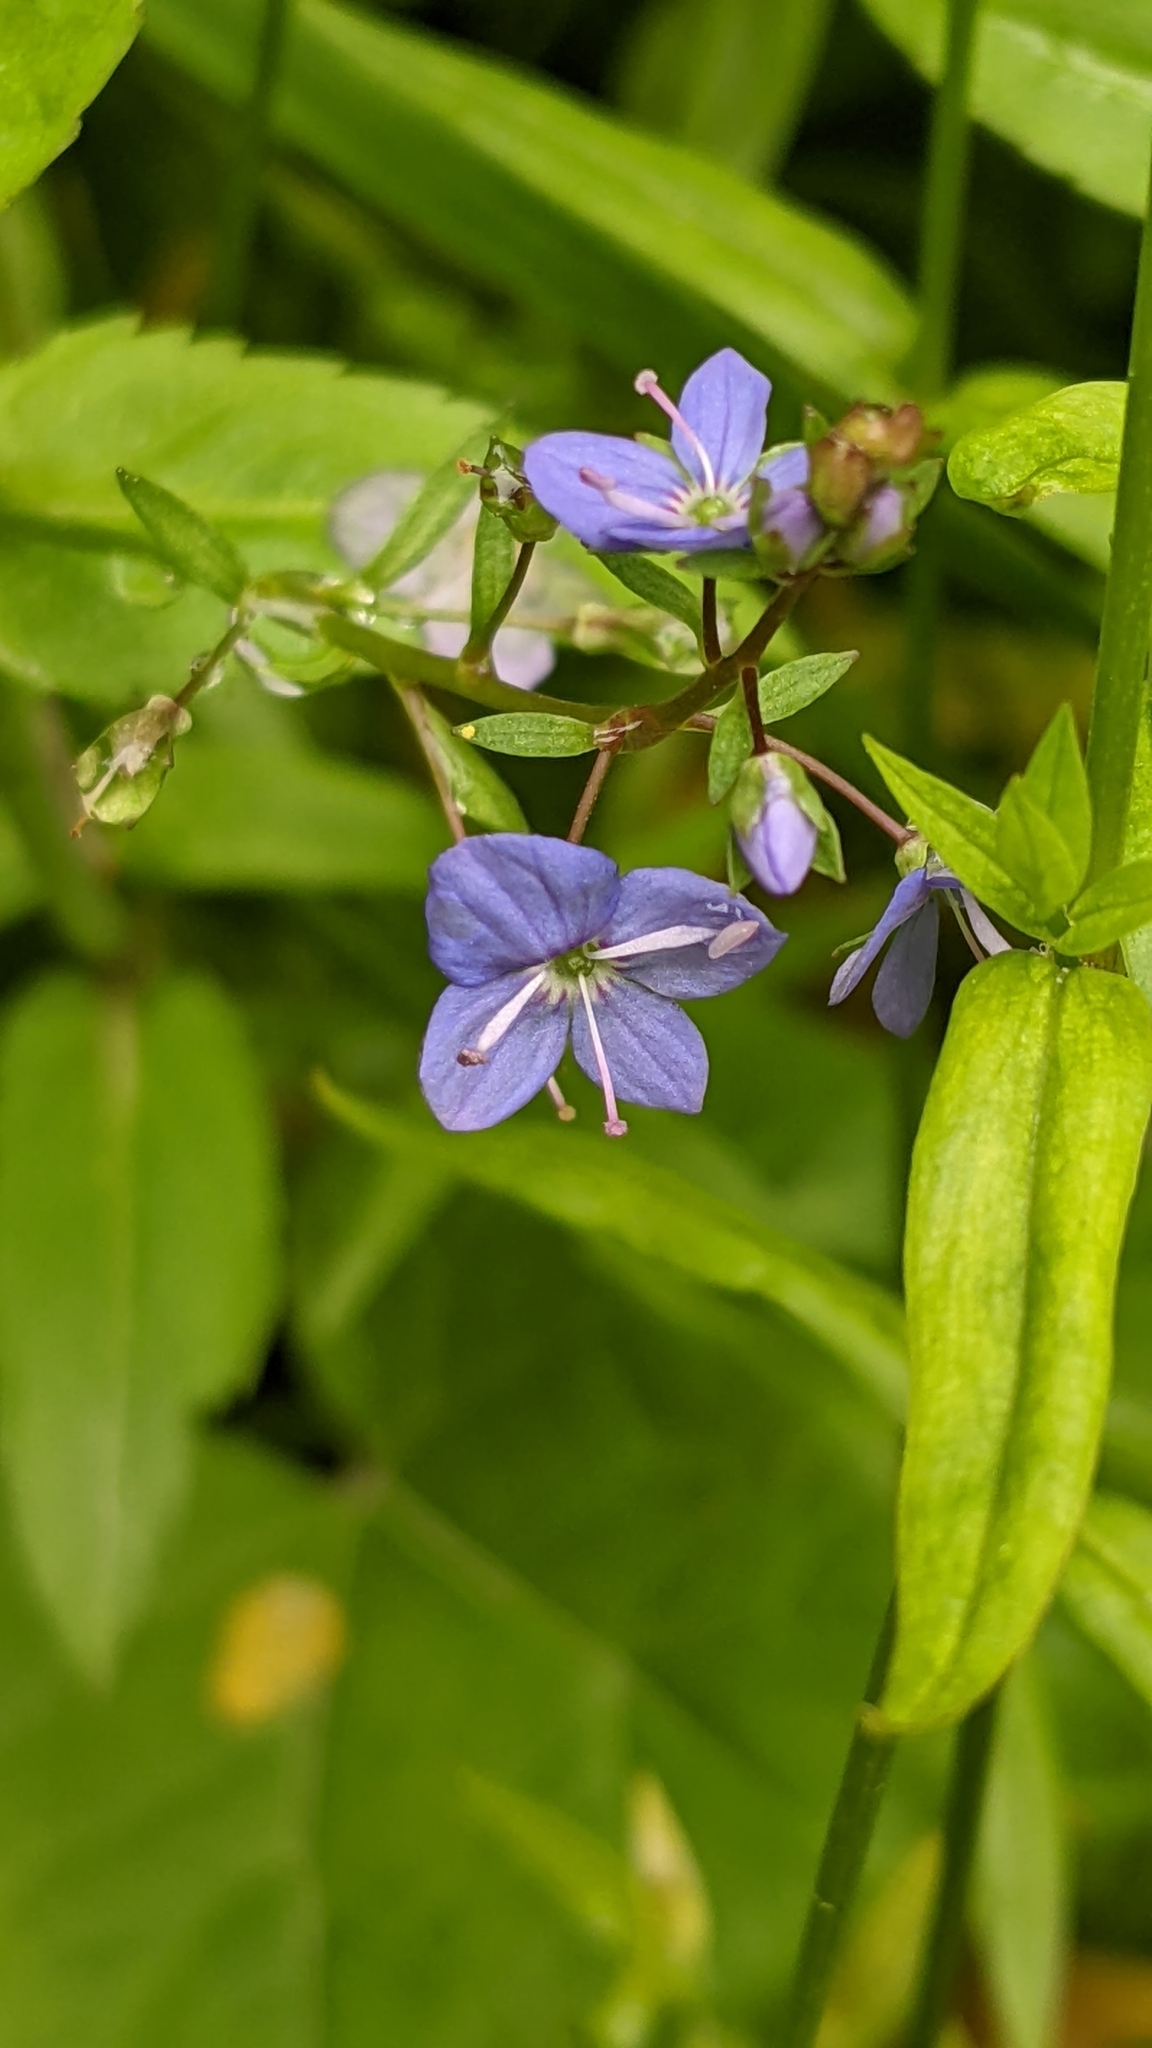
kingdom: Plantae
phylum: Tracheophyta
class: Magnoliopsida
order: Lamiales
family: Plantaginaceae
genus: Veronica
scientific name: Veronica americana
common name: American brooklime
